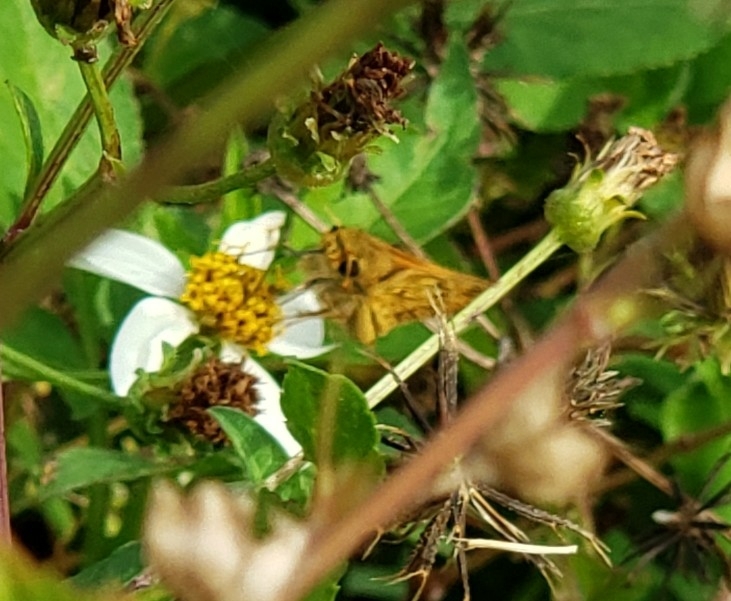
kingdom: Animalia
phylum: Arthropoda
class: Insecta
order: Lepidoptera
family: Hesperiidae
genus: Hylephila
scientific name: Hylephila phyleus
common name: Fiery skipper
